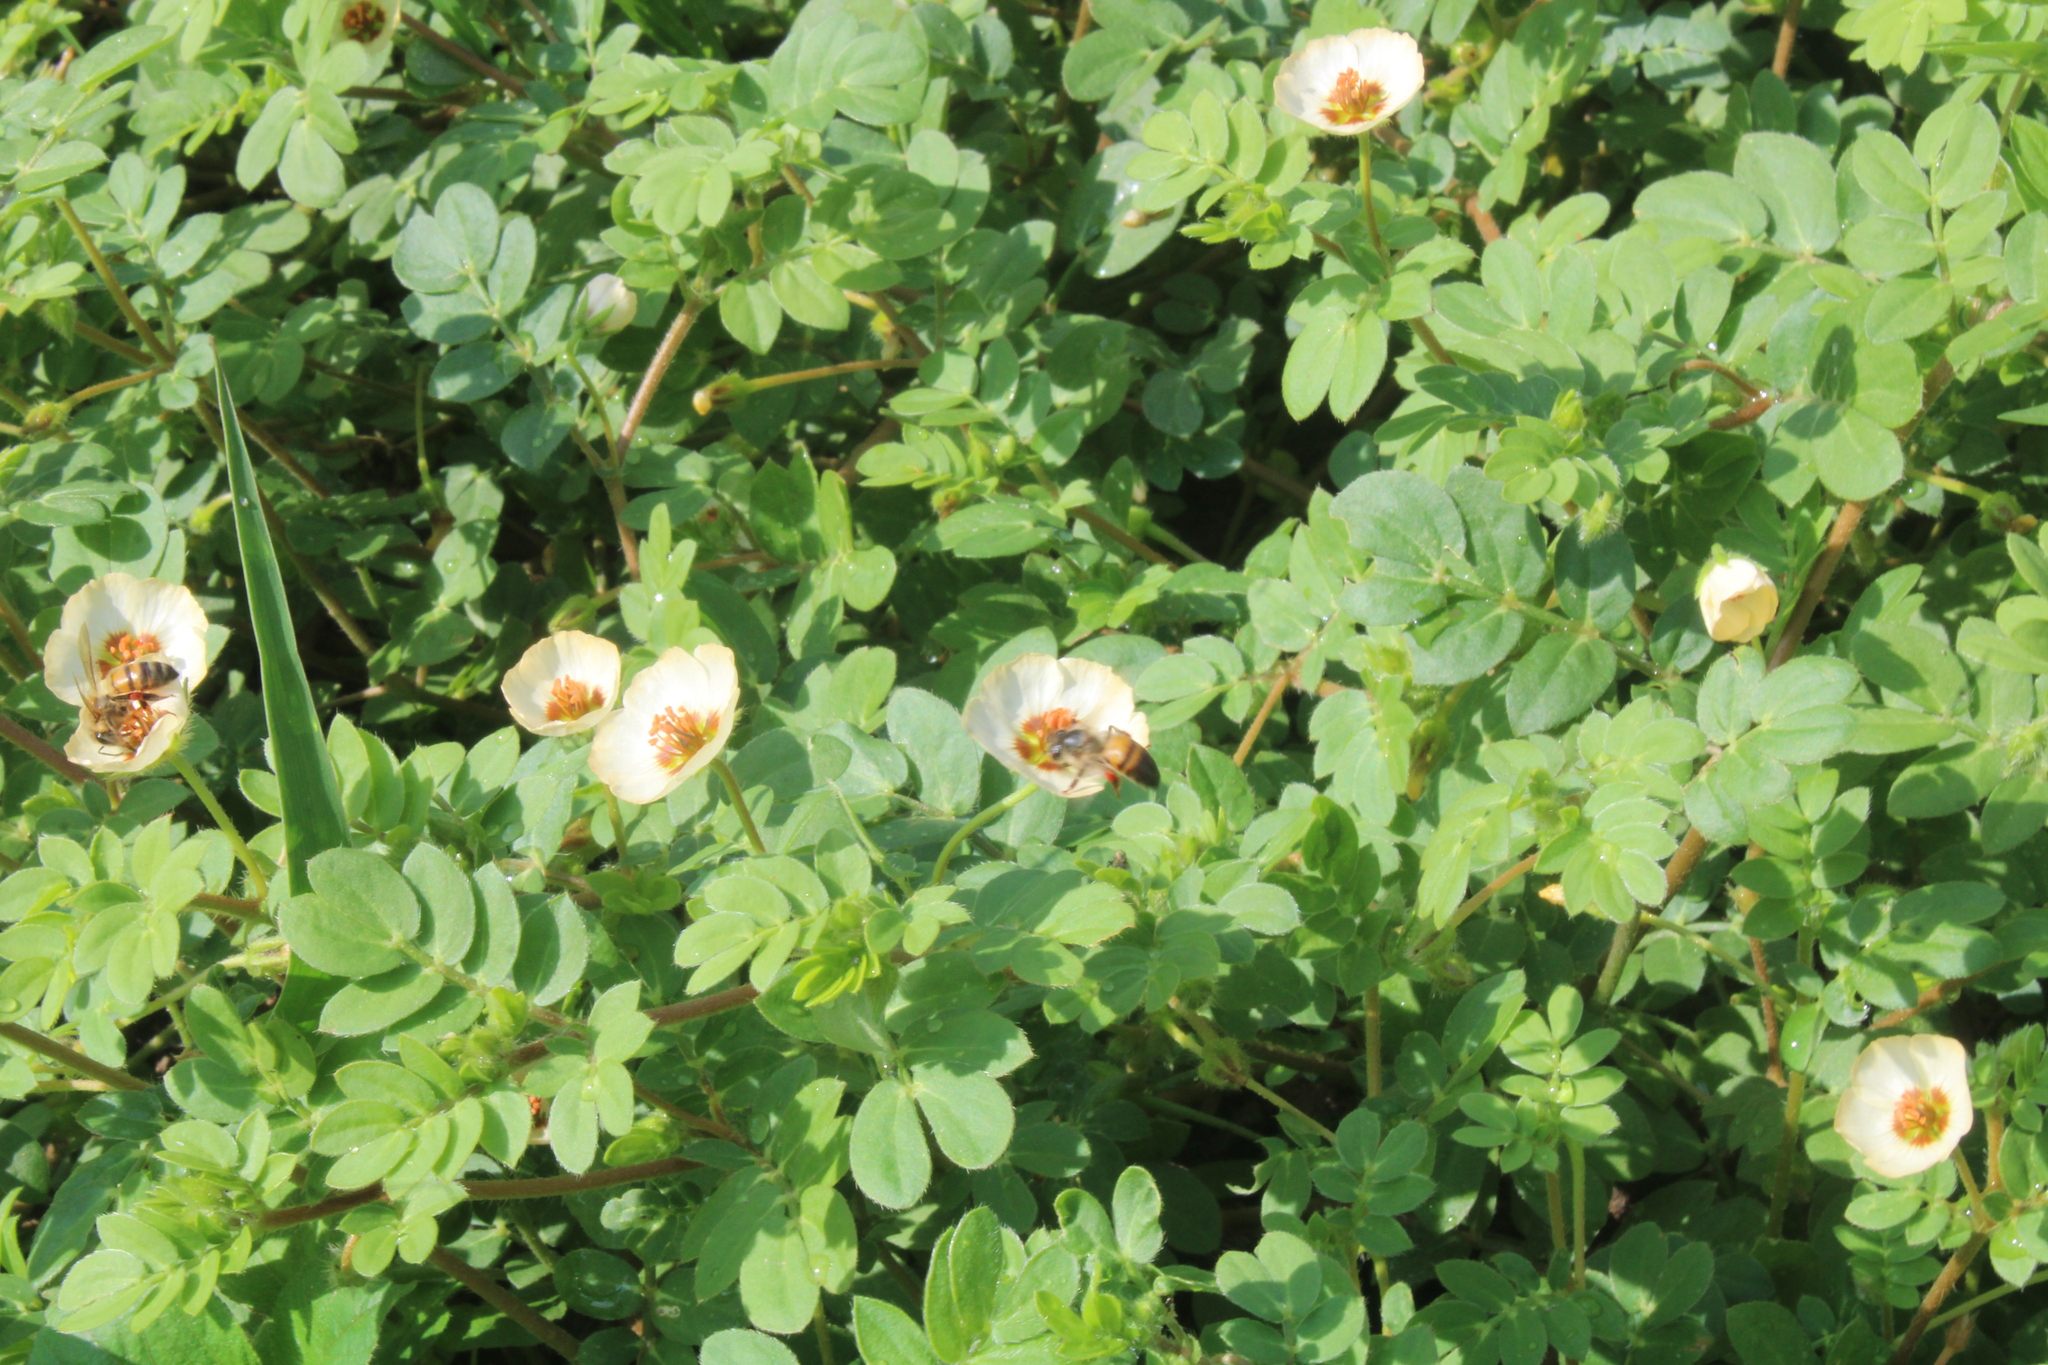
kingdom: Plantae
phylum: Tracheophyta
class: Magnoliopsida
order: Zygophyllales
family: Zygophyllaceae
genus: Kallstroemia
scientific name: Kallstroemia rosei
